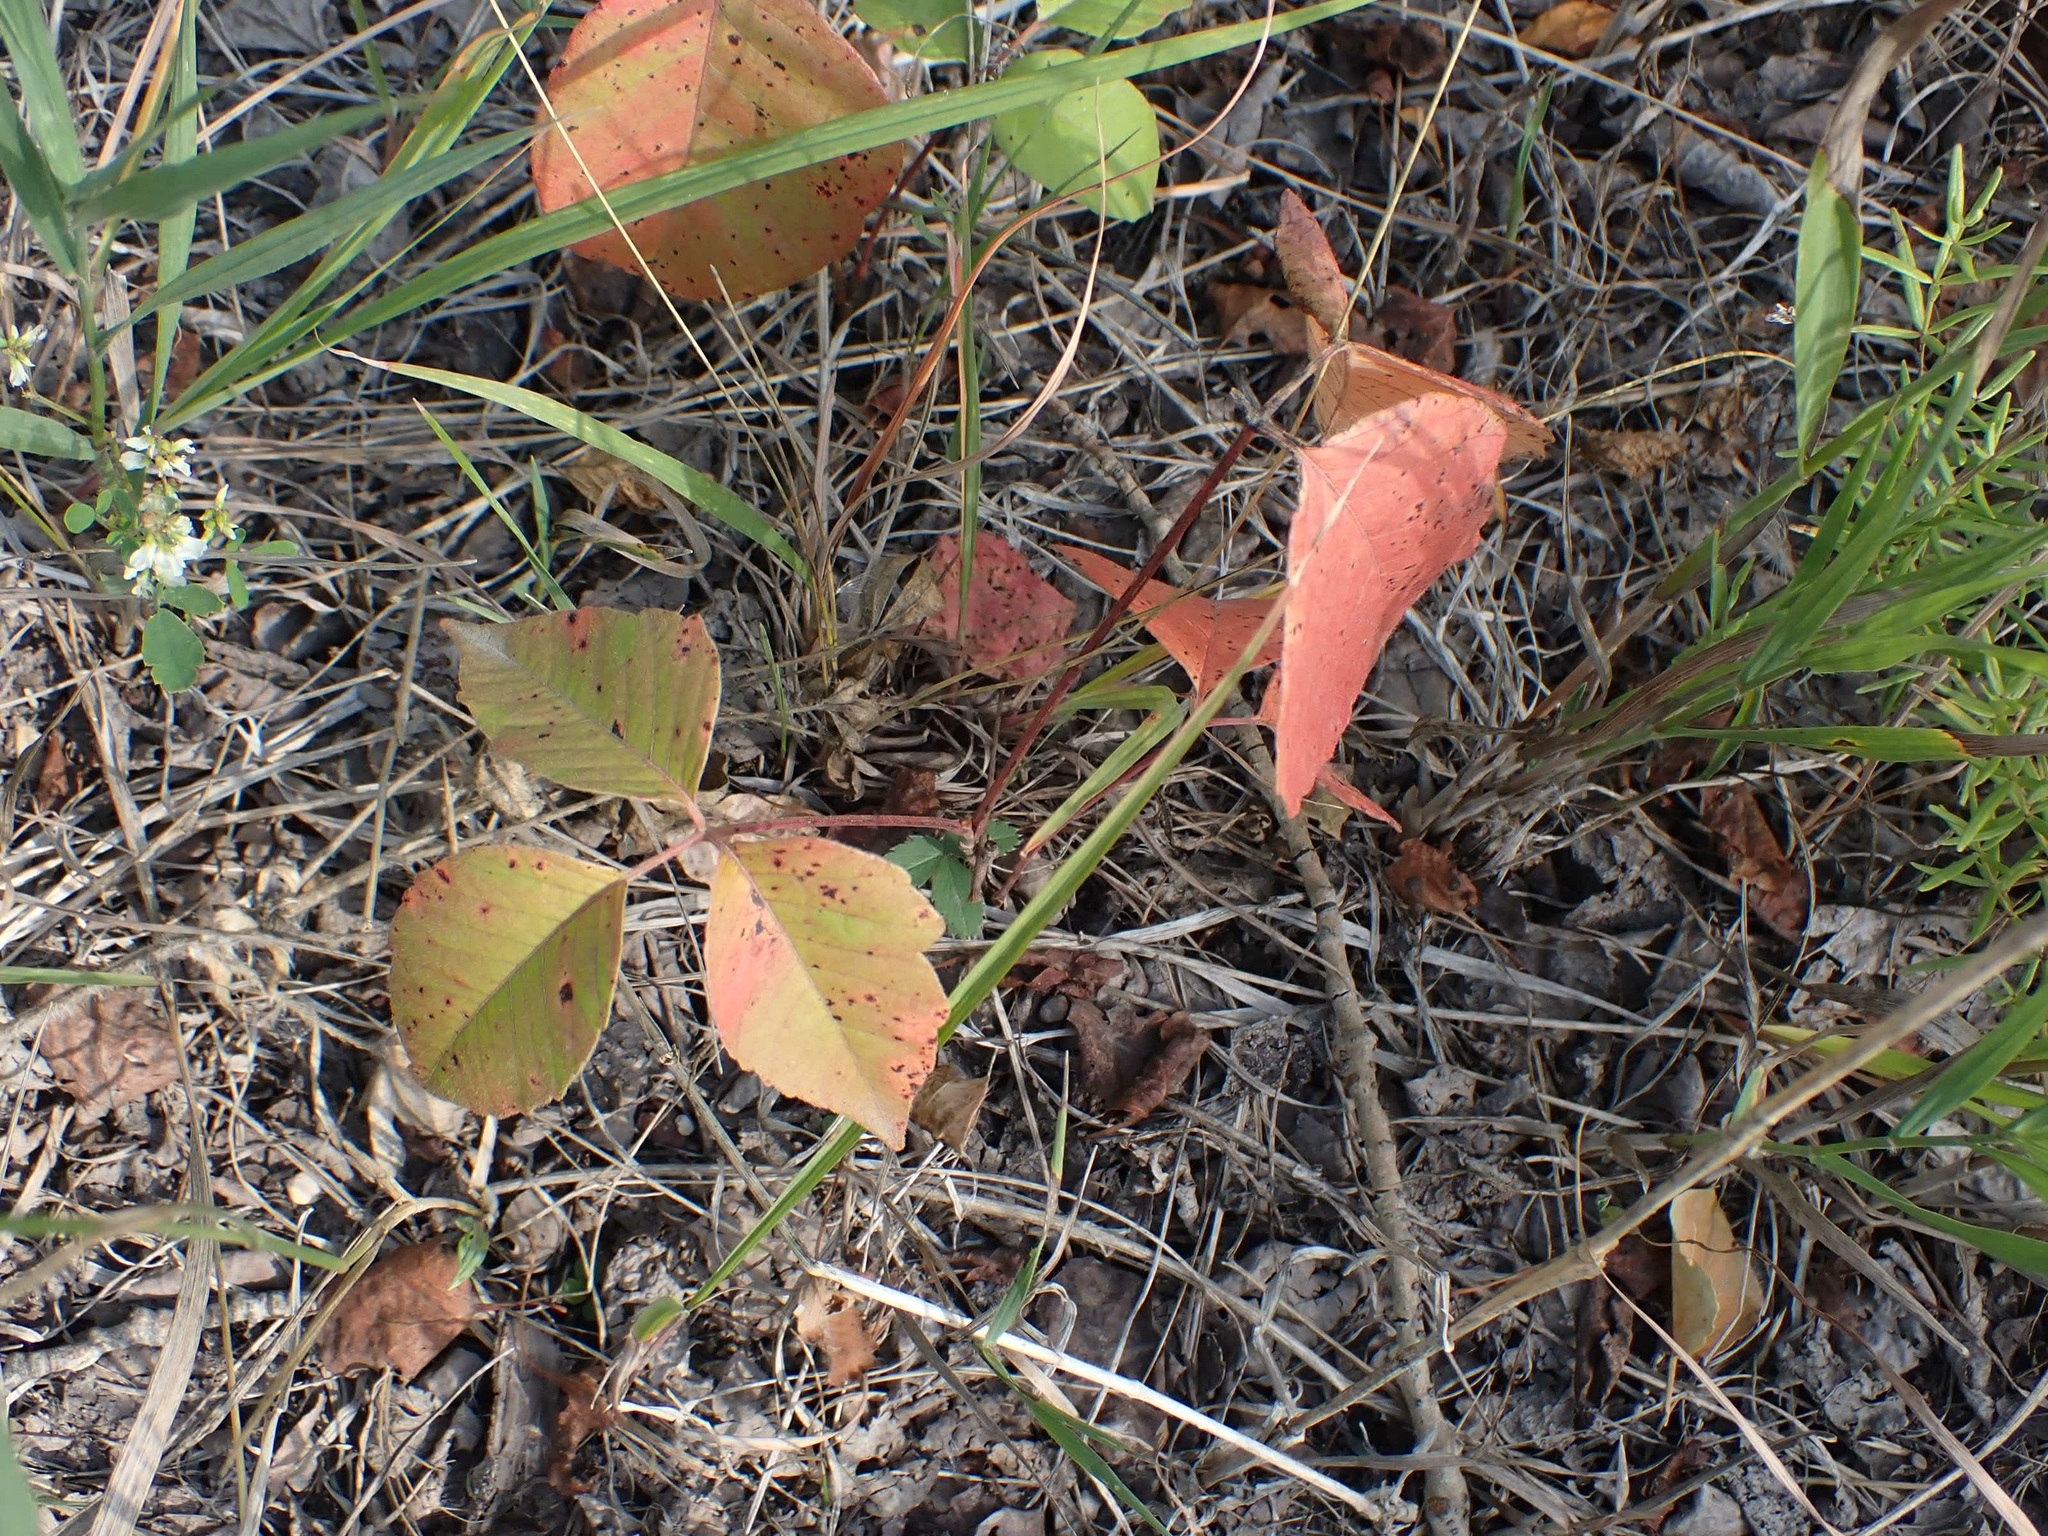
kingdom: Plantae
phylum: Tracheophyta
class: Magnoliopsida
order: Sapindales
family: Anacardiaceae
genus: Toxicodendron
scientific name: Toxicodendron rydbergii
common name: Rydberg's poison-ivy
